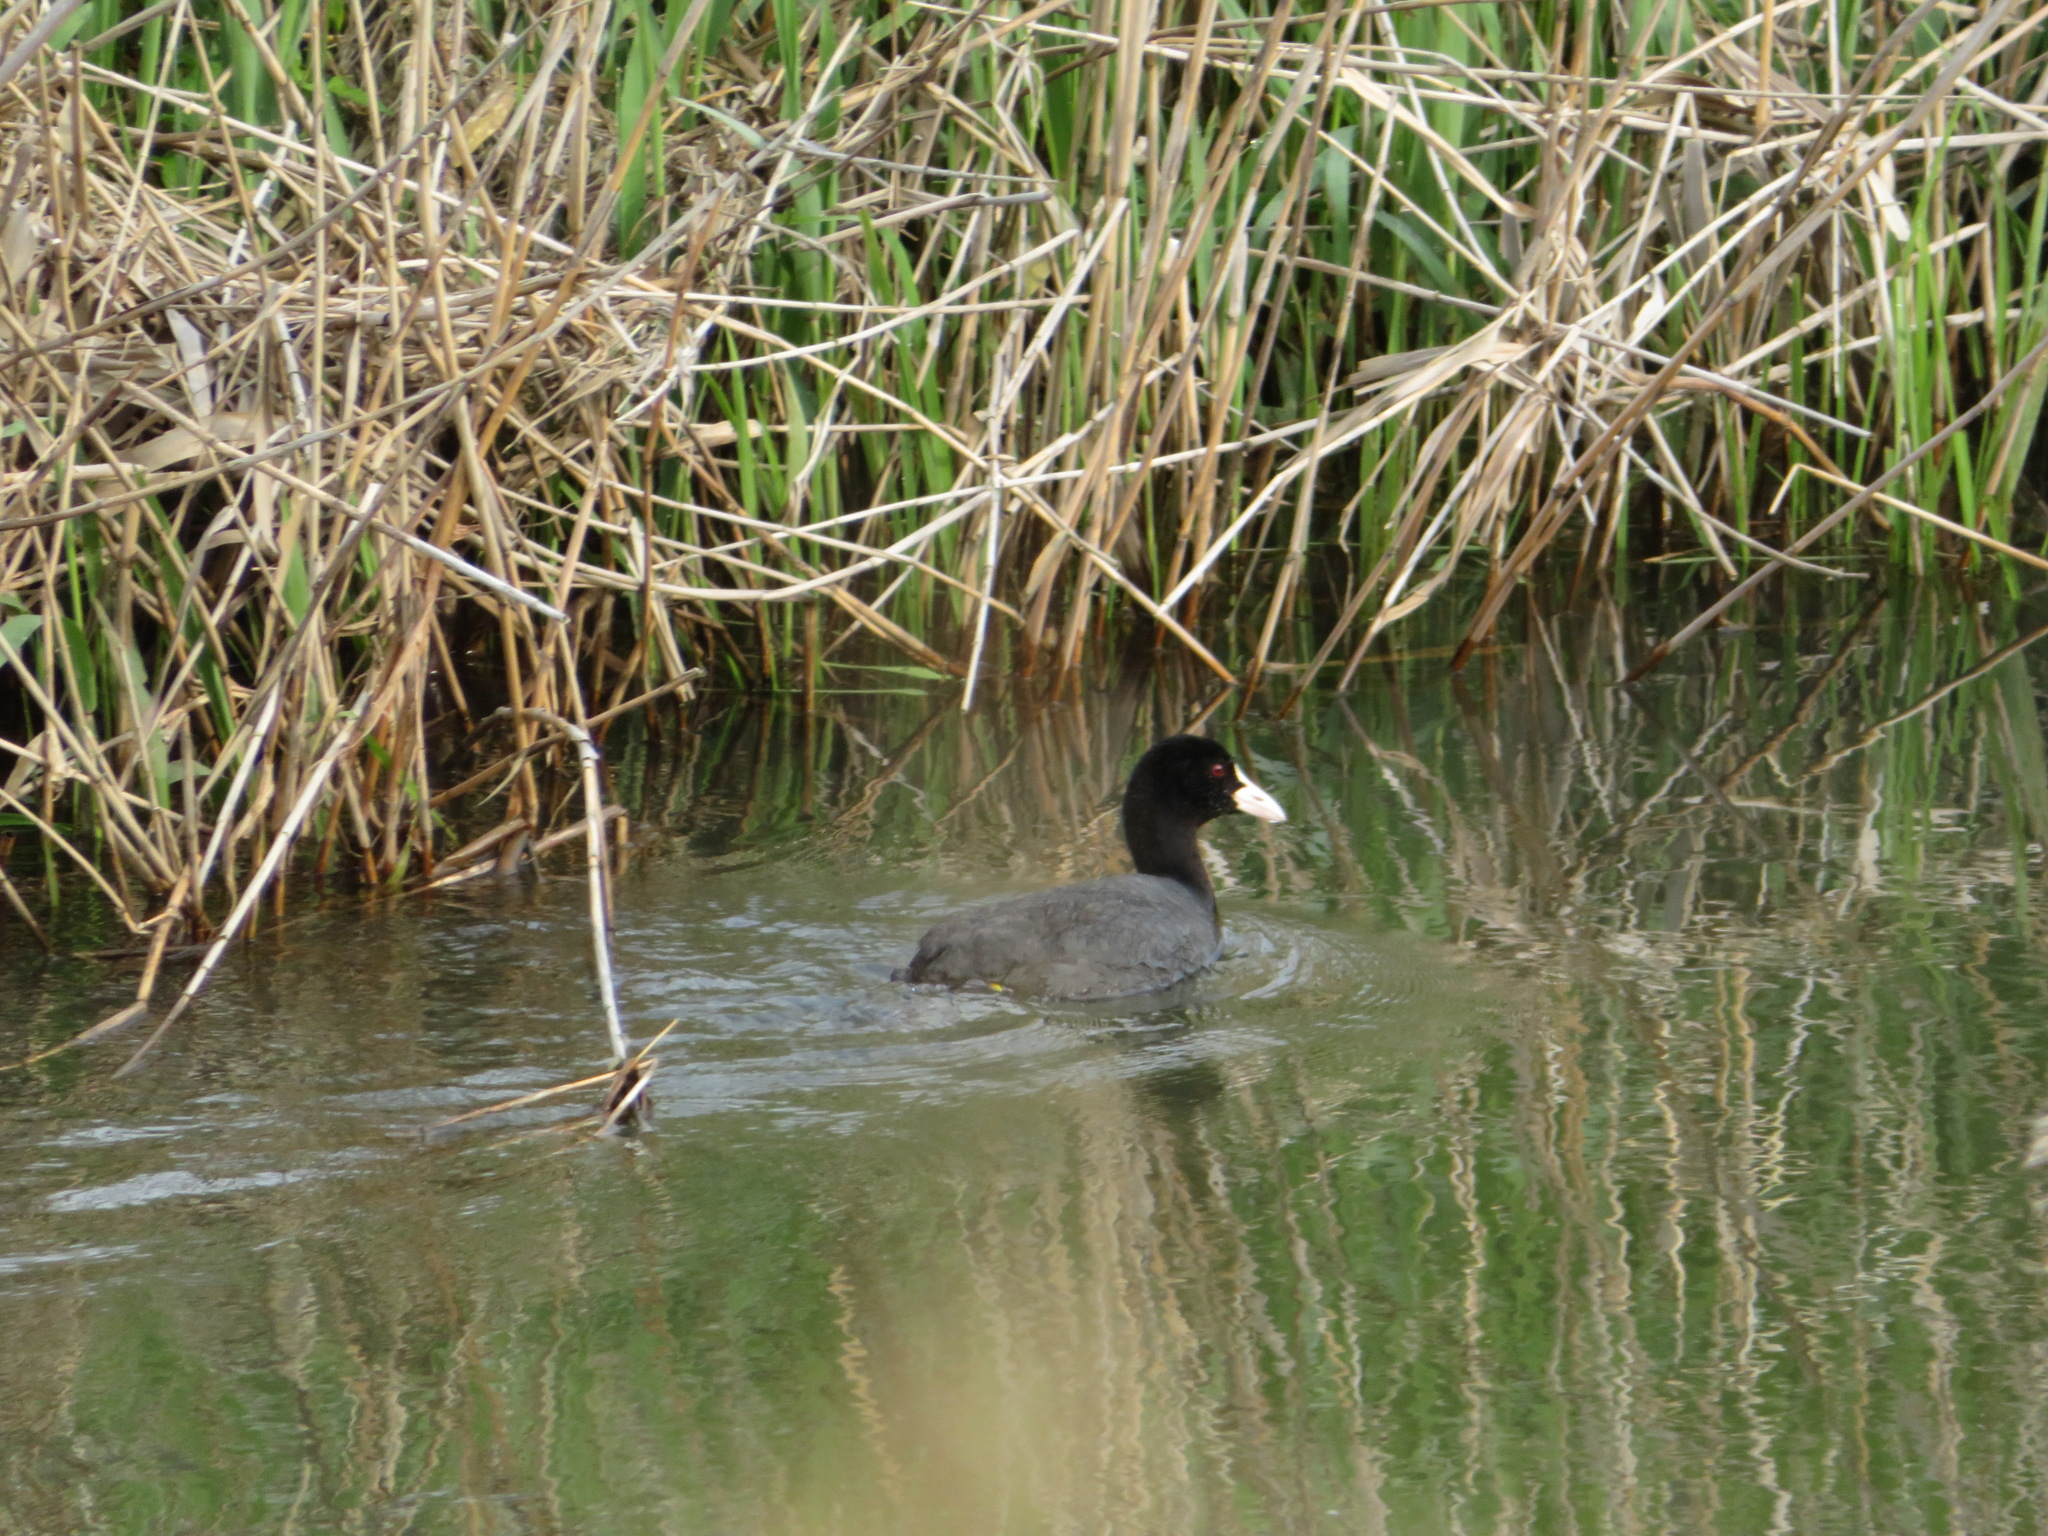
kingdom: Animalia
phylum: Chordata
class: Aves
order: Gruiformes
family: Rallidae
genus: Fulica
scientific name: Fulica atra
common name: Eurasian coot
